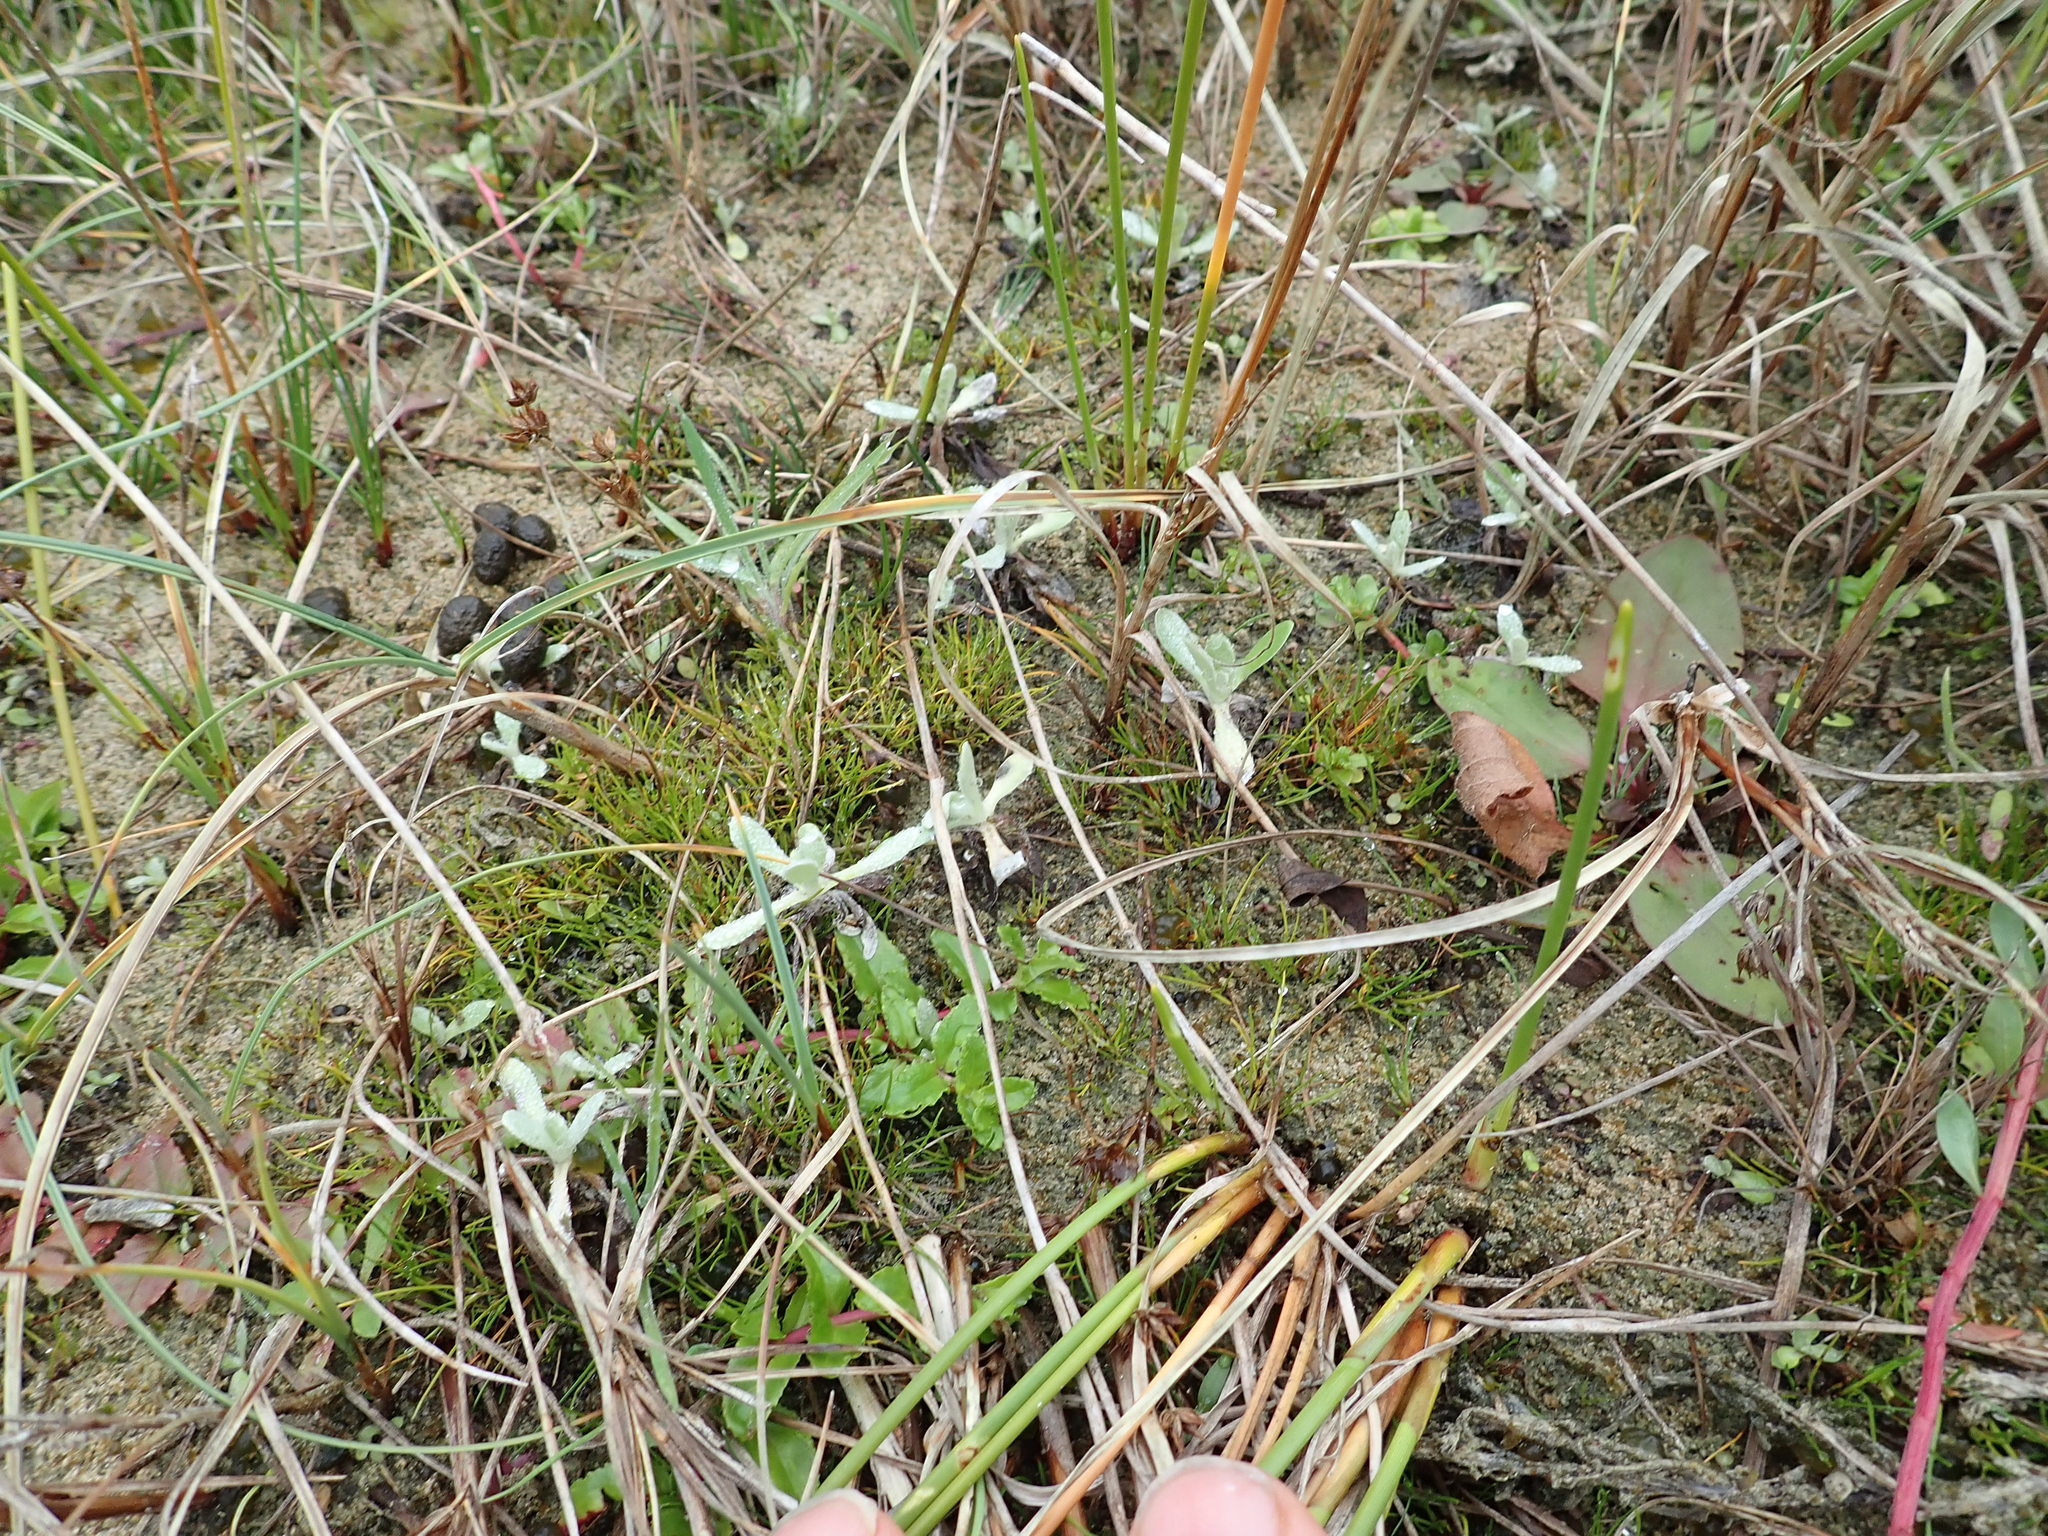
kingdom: Plantae
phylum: Tracheophyta
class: Magnoliopsida
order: Asterales
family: Asteraceae
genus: Helichrysum
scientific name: Helichrysum luteoalbum
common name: Daisy
